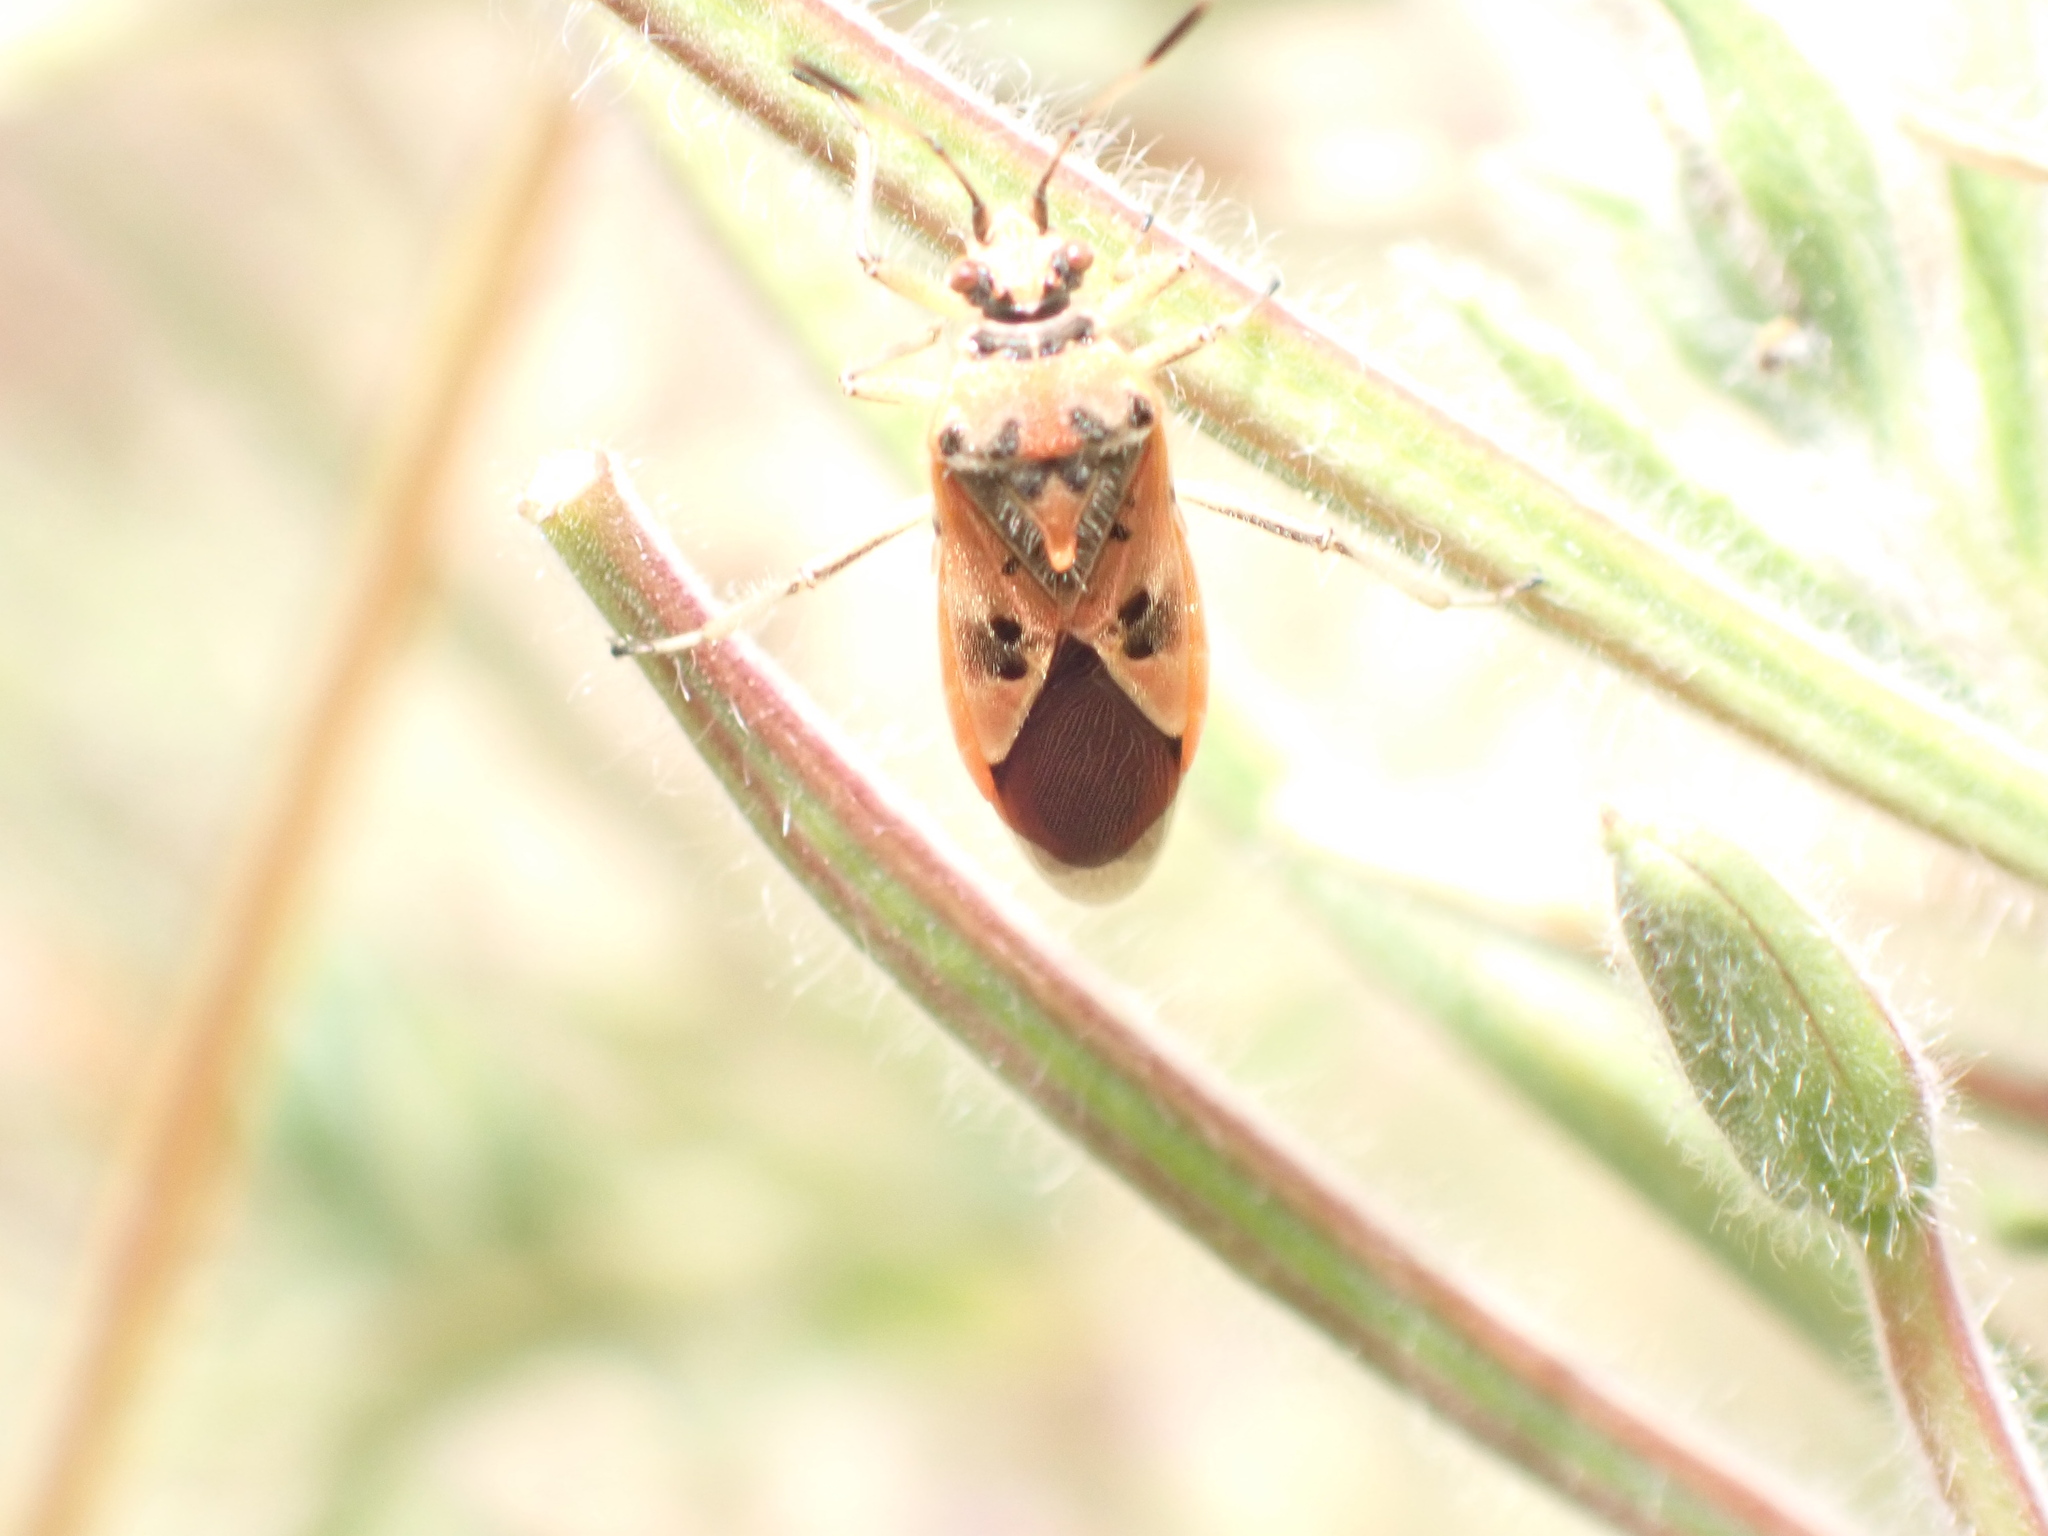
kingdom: Animalia
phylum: Arthropoda
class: Insecta
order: Hemiptera
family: Rhopalidae
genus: Corizus
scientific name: Corizus hyoscyami
